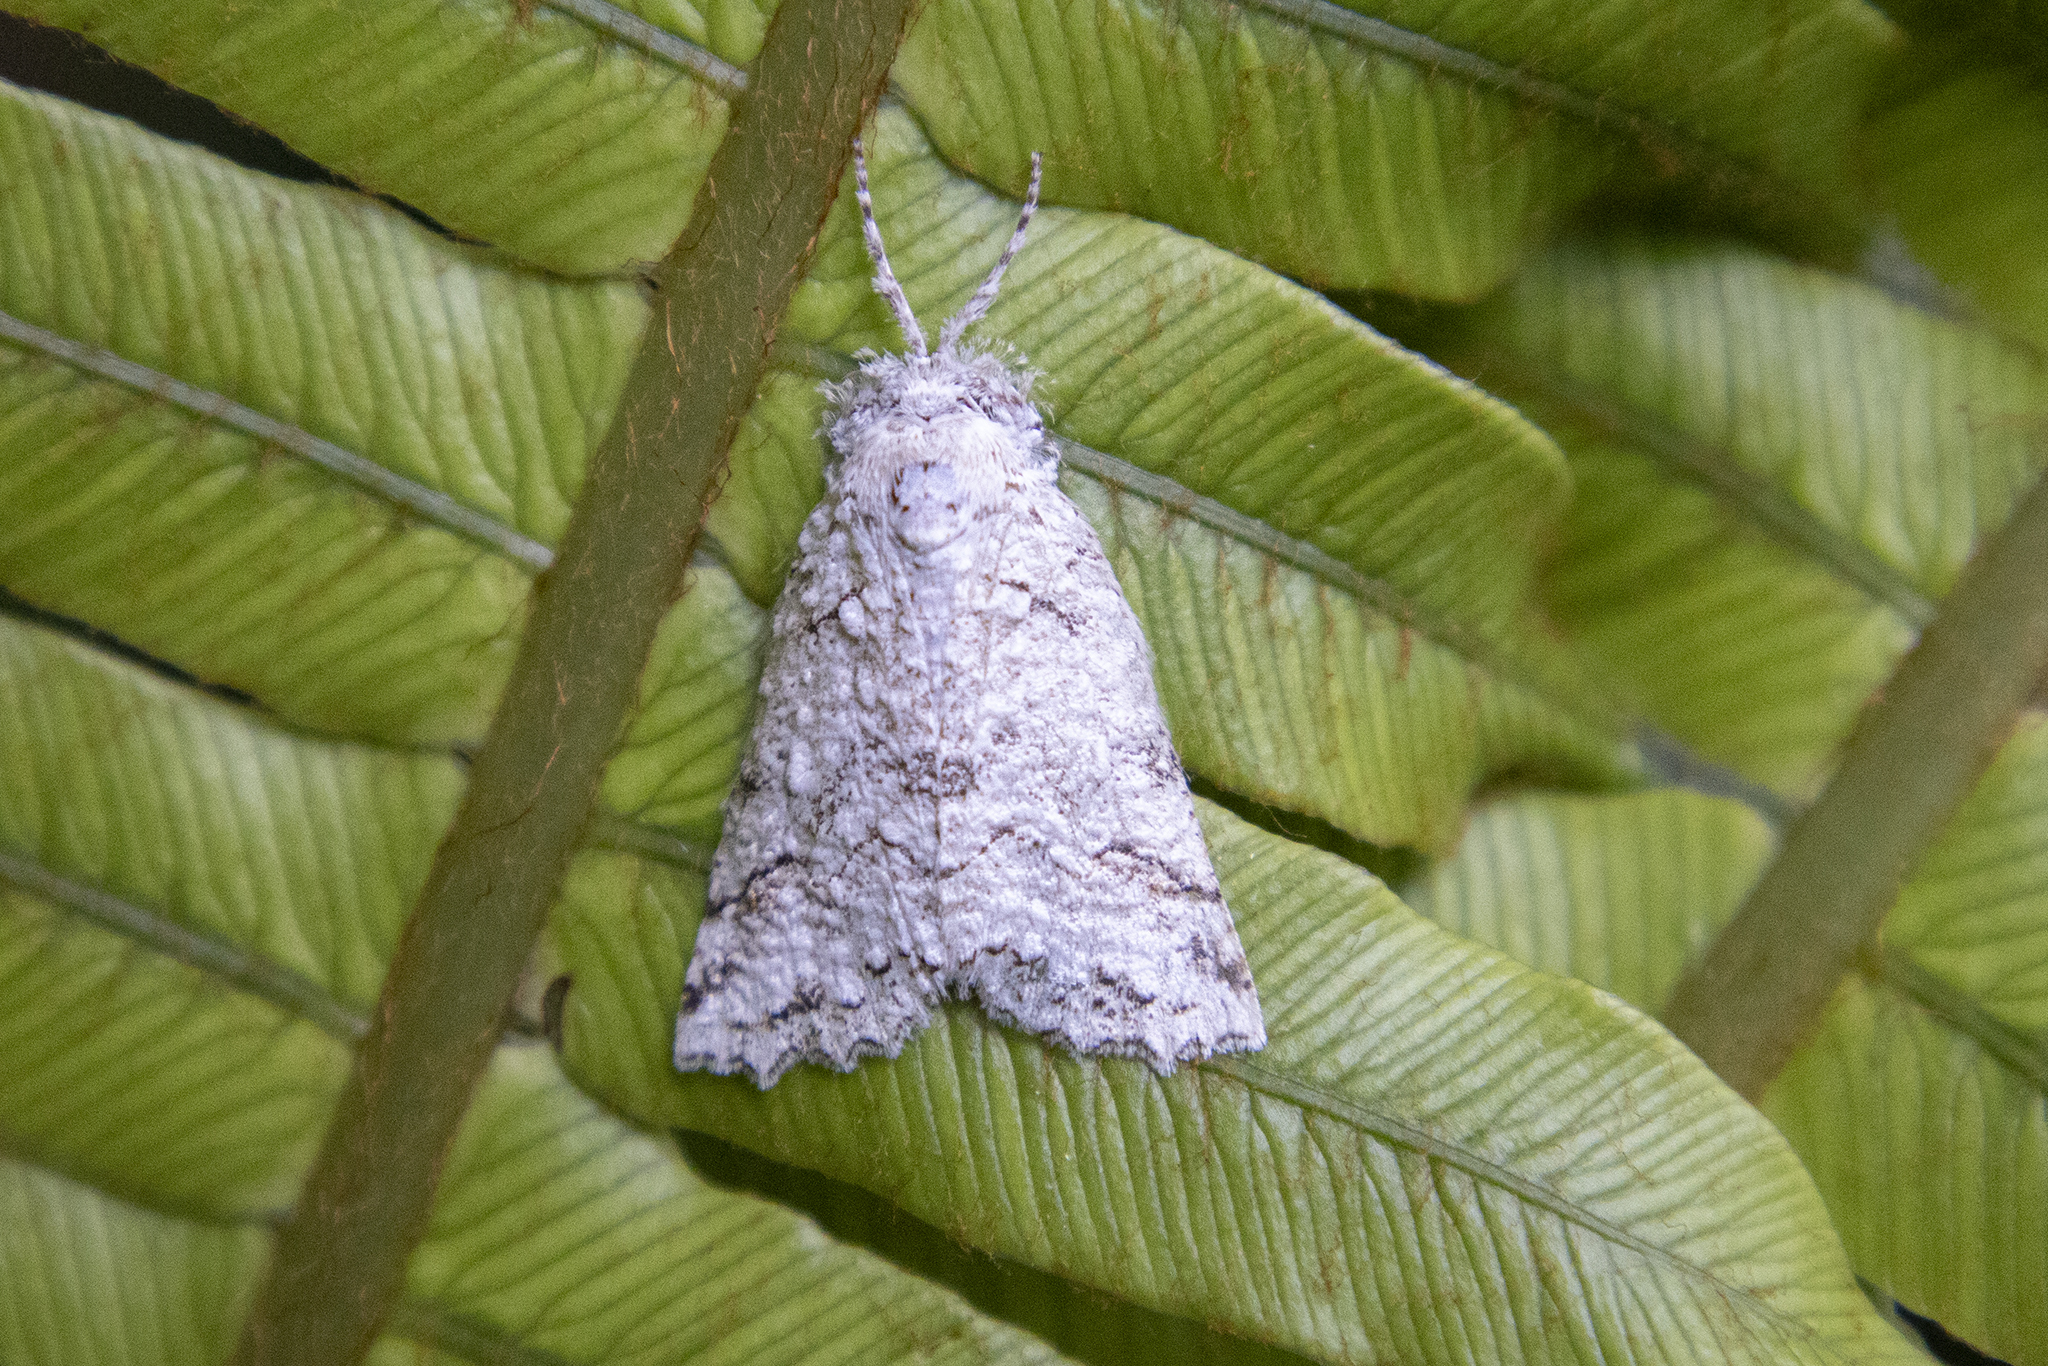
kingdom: Animalia
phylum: Arthropoda
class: Insecta
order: Lepidoptera
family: Geometridae
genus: Declana
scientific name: Declana floccosa
